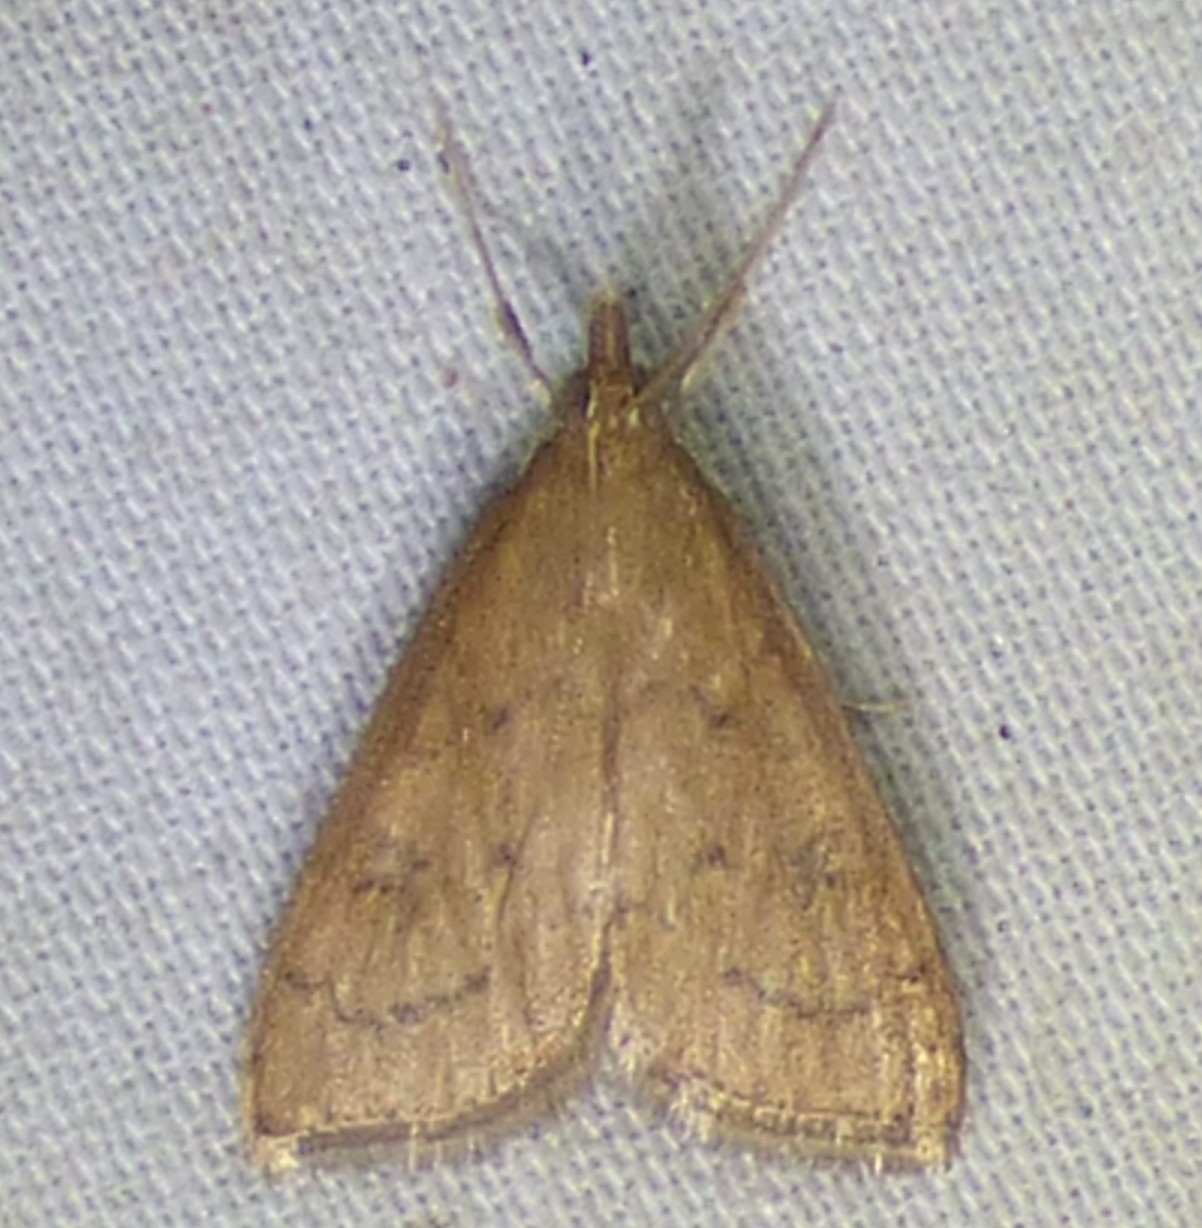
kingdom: Animalia
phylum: Arthropoda
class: Insecta
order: Lepidoptera
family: Crambidae
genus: Udea
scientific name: Udea rubigalis
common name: Celery leaftier moth
